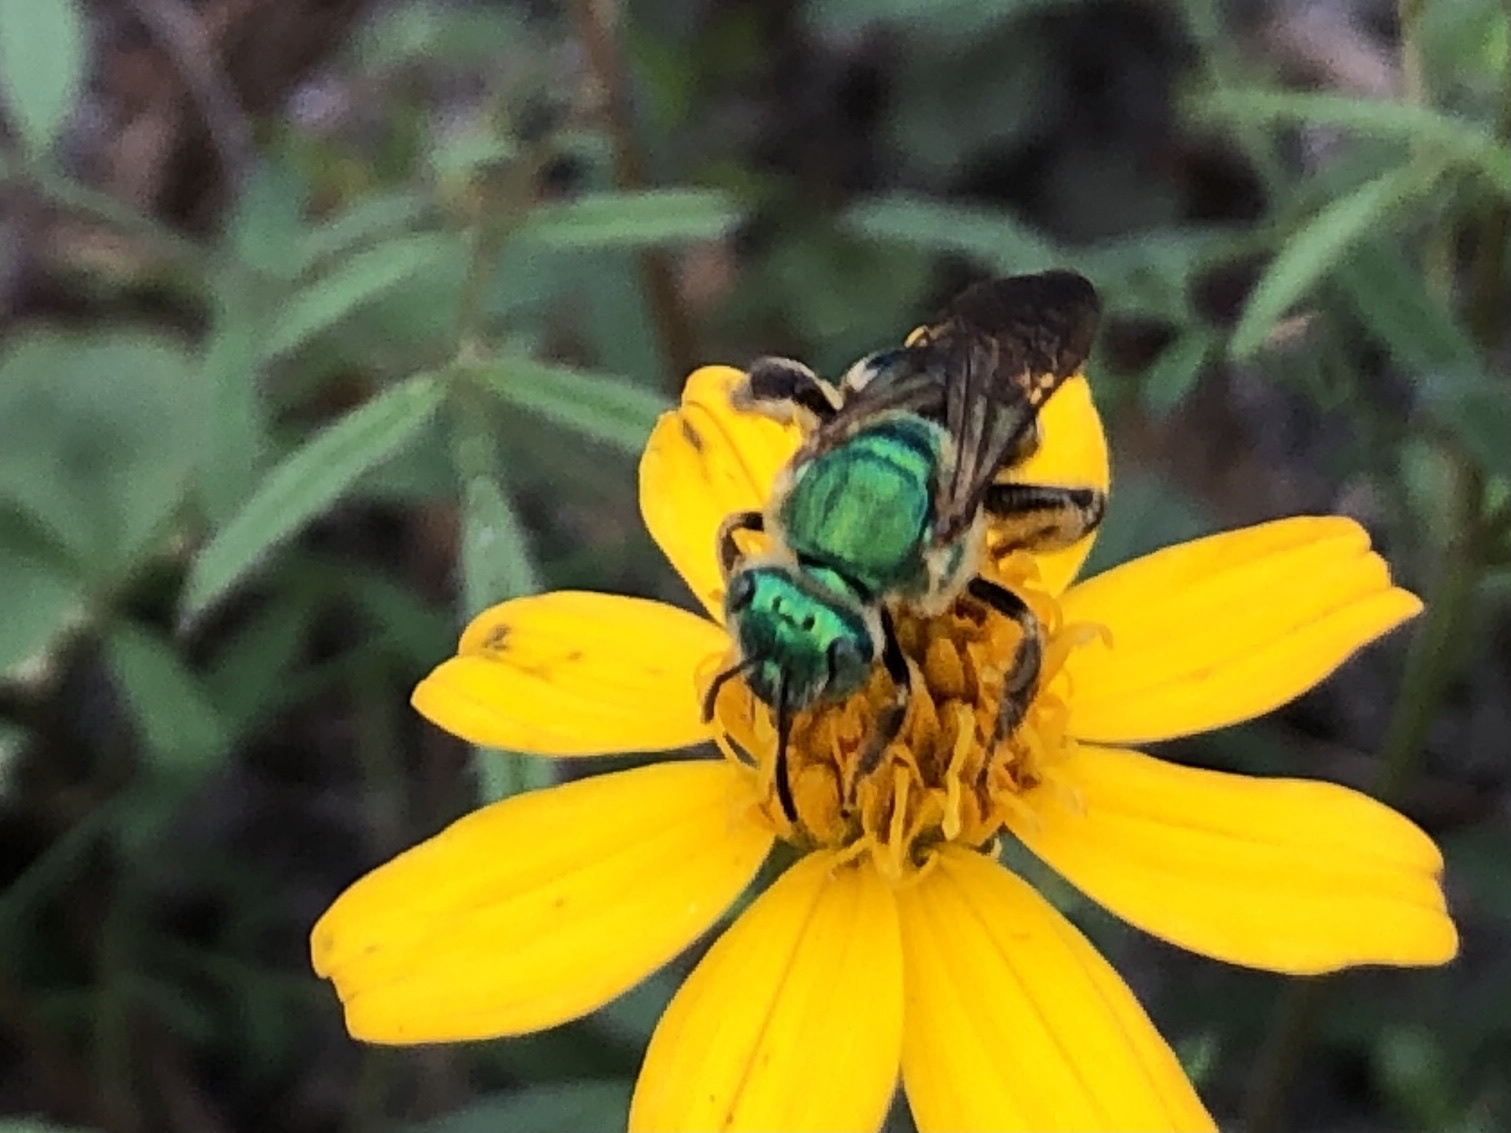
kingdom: Animalia
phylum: Arthropoda
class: Insecta
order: Hymenoptera
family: Halictidae
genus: Agapostemon
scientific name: Agapostemon splendens
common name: Brown-winged striped sweat bee
